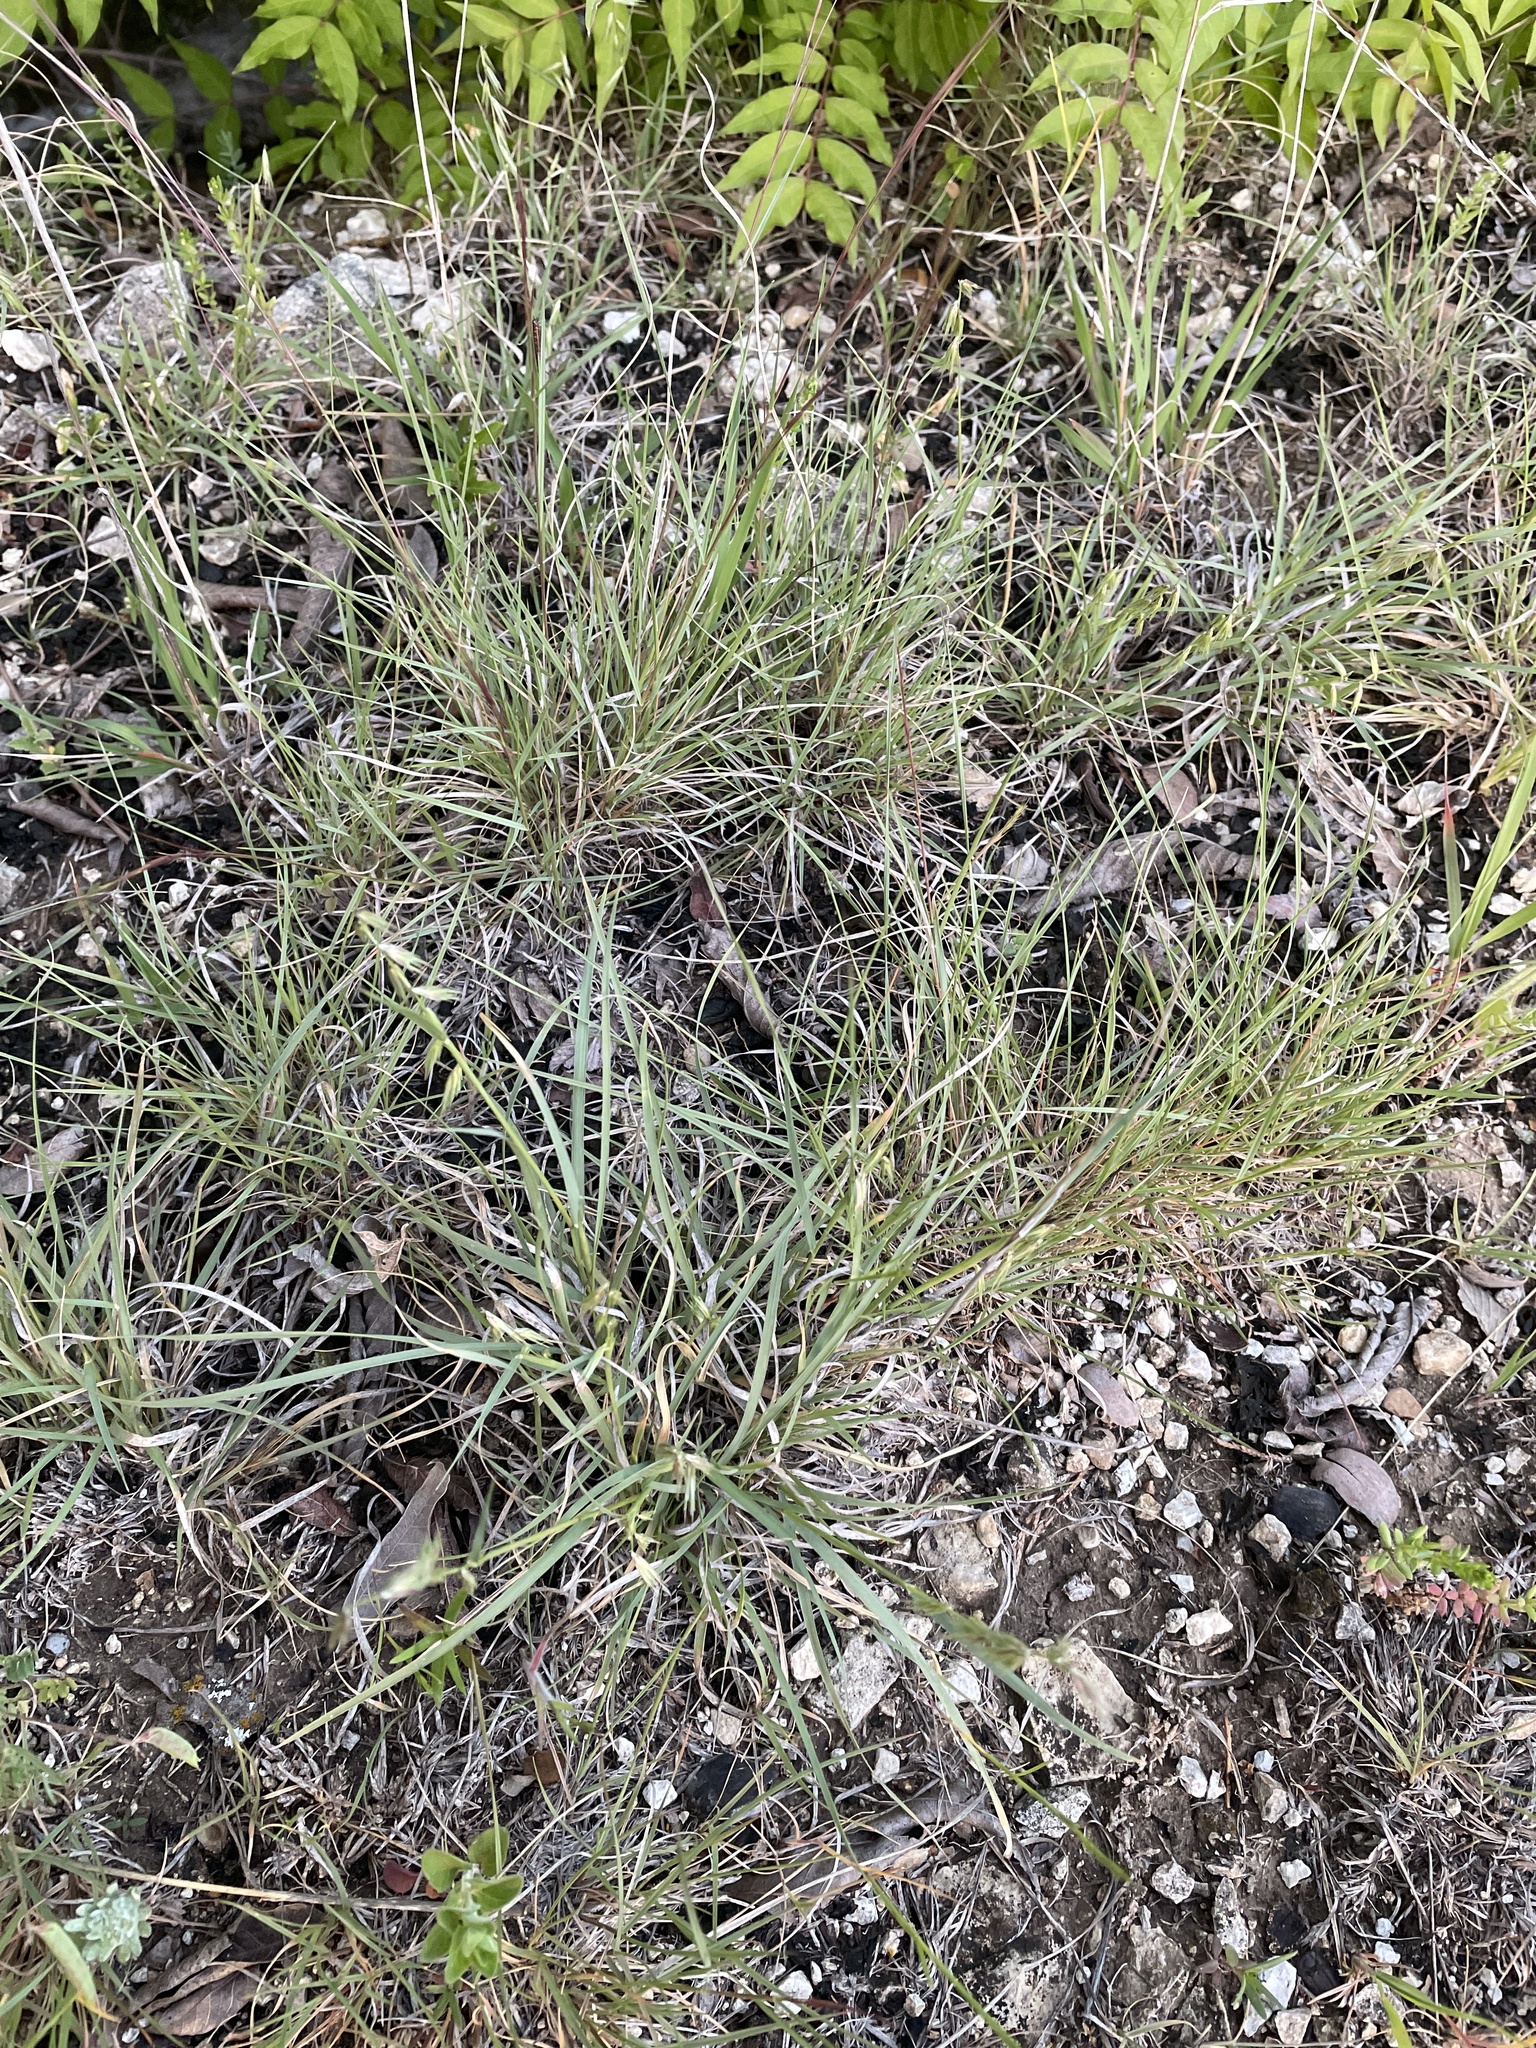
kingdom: Plantae
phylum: Tracheophyta
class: Liliopsida
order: Poales
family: Poaceae
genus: Bouteloua
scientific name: Bouteloua rigidiseta
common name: Texas grama
